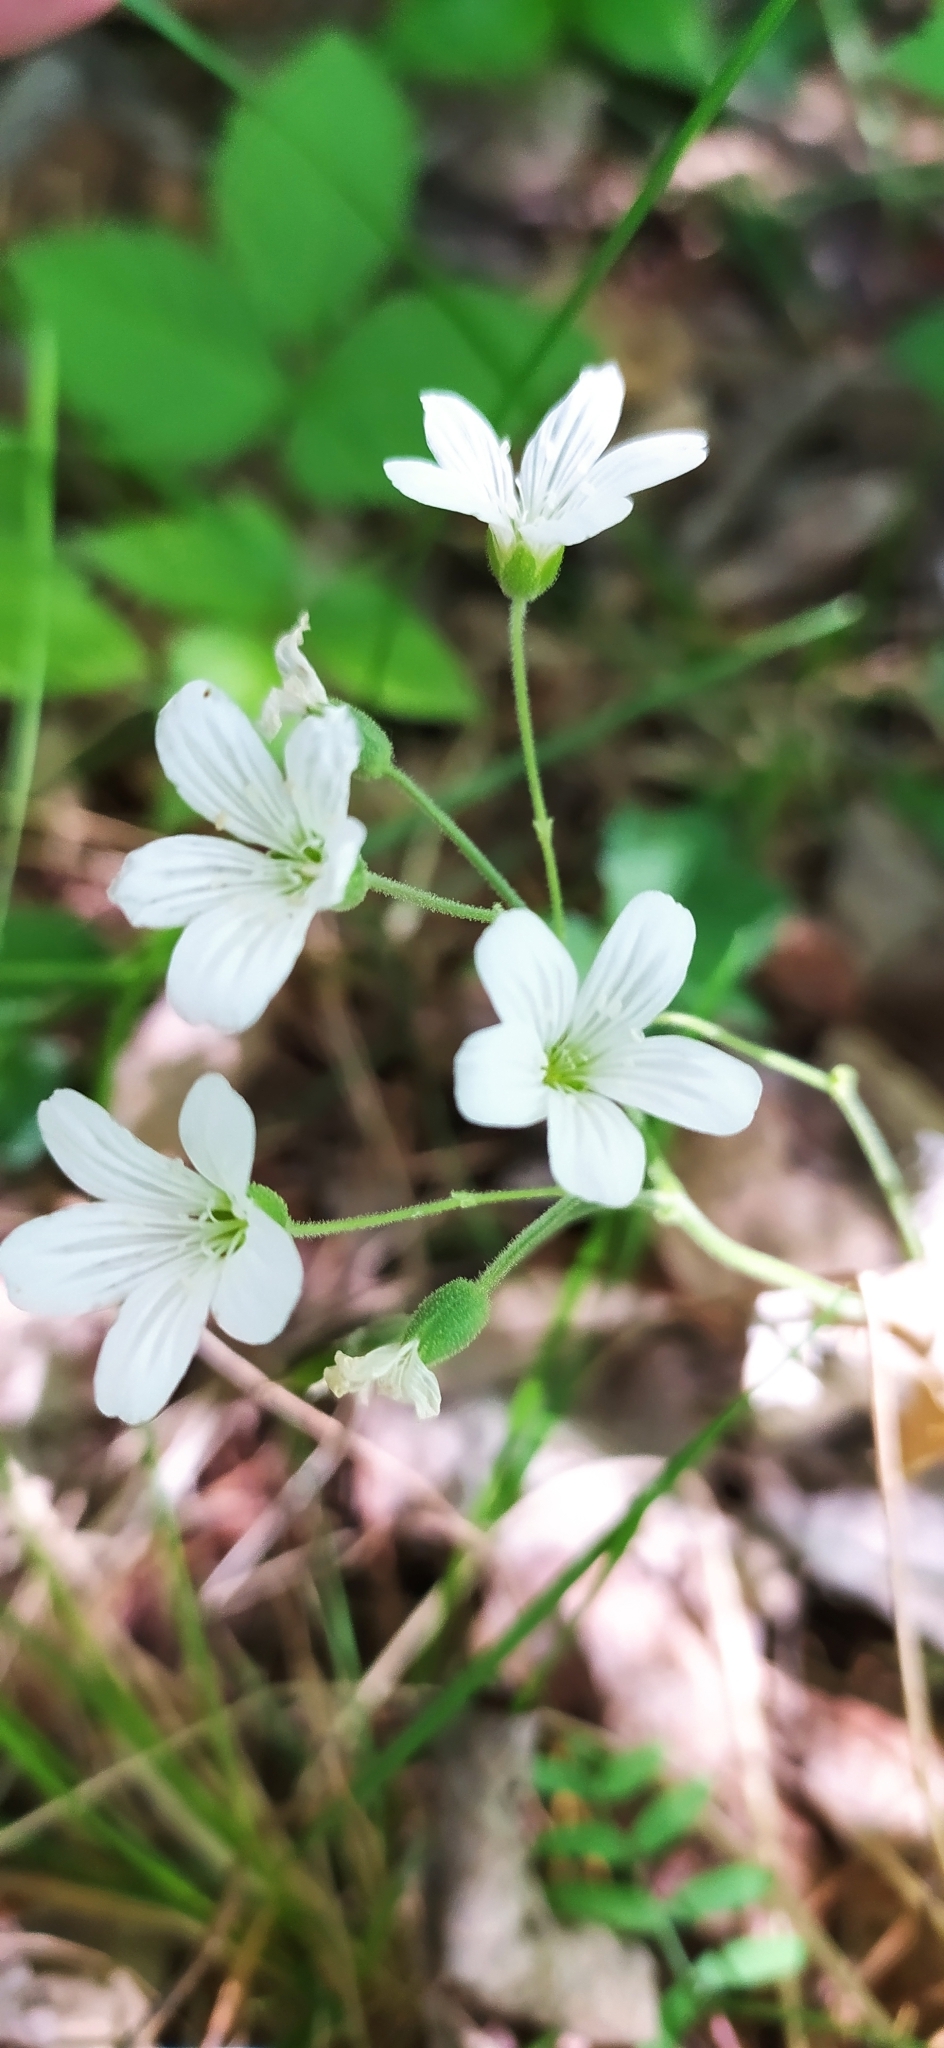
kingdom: Plantae
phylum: Tracheophyta
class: Magnoliopsida
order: Caryophyllales
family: Caryophyllaceae
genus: Cerastium
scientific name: Cerastium pauciflorum
